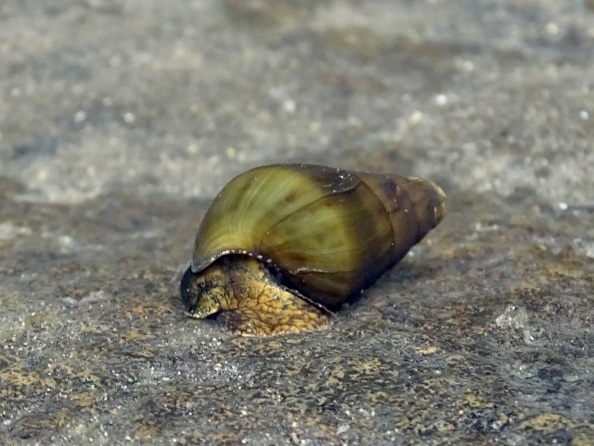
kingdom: Animalia
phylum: Mollusca
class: Gastropoda
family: Pachychilidae
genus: Sulcospira
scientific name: Sulcospira hainanensis
